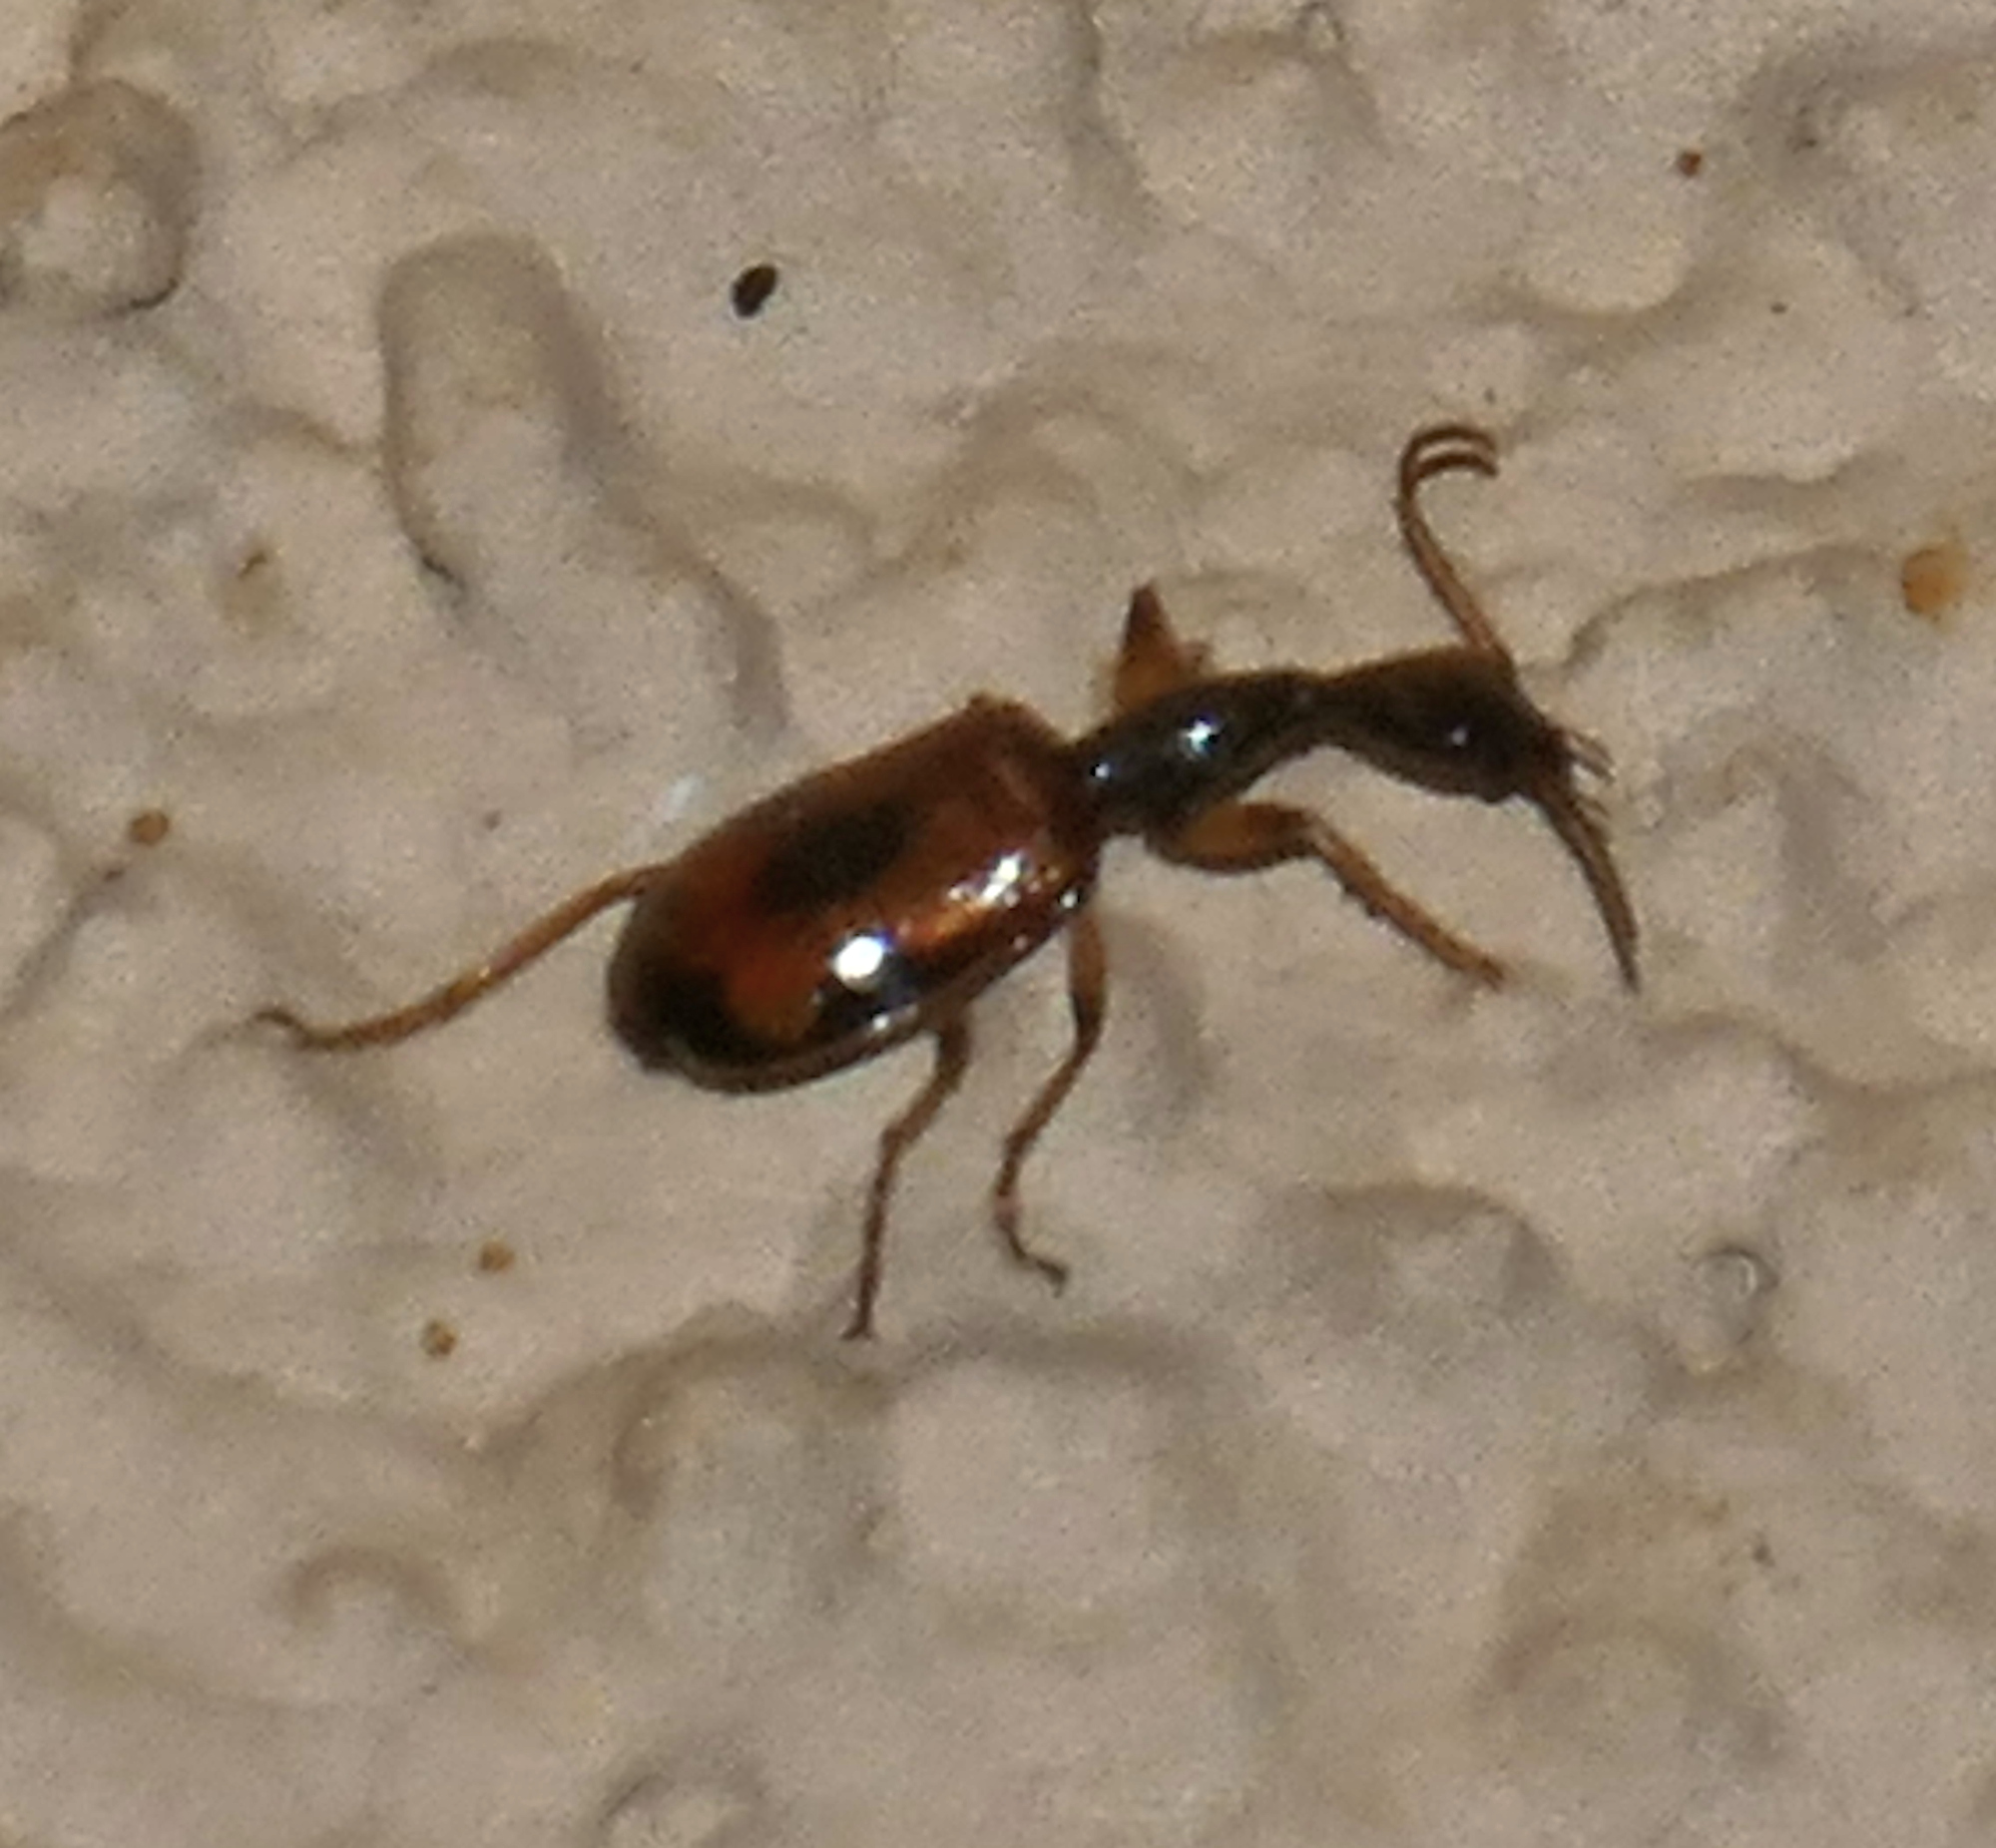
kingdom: Animalia
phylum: Arthropoda
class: Insecta
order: Coleoptera
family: Carabidae
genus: Colliuris
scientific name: Colliuris pensylvanica
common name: Long-necked ground beetle
